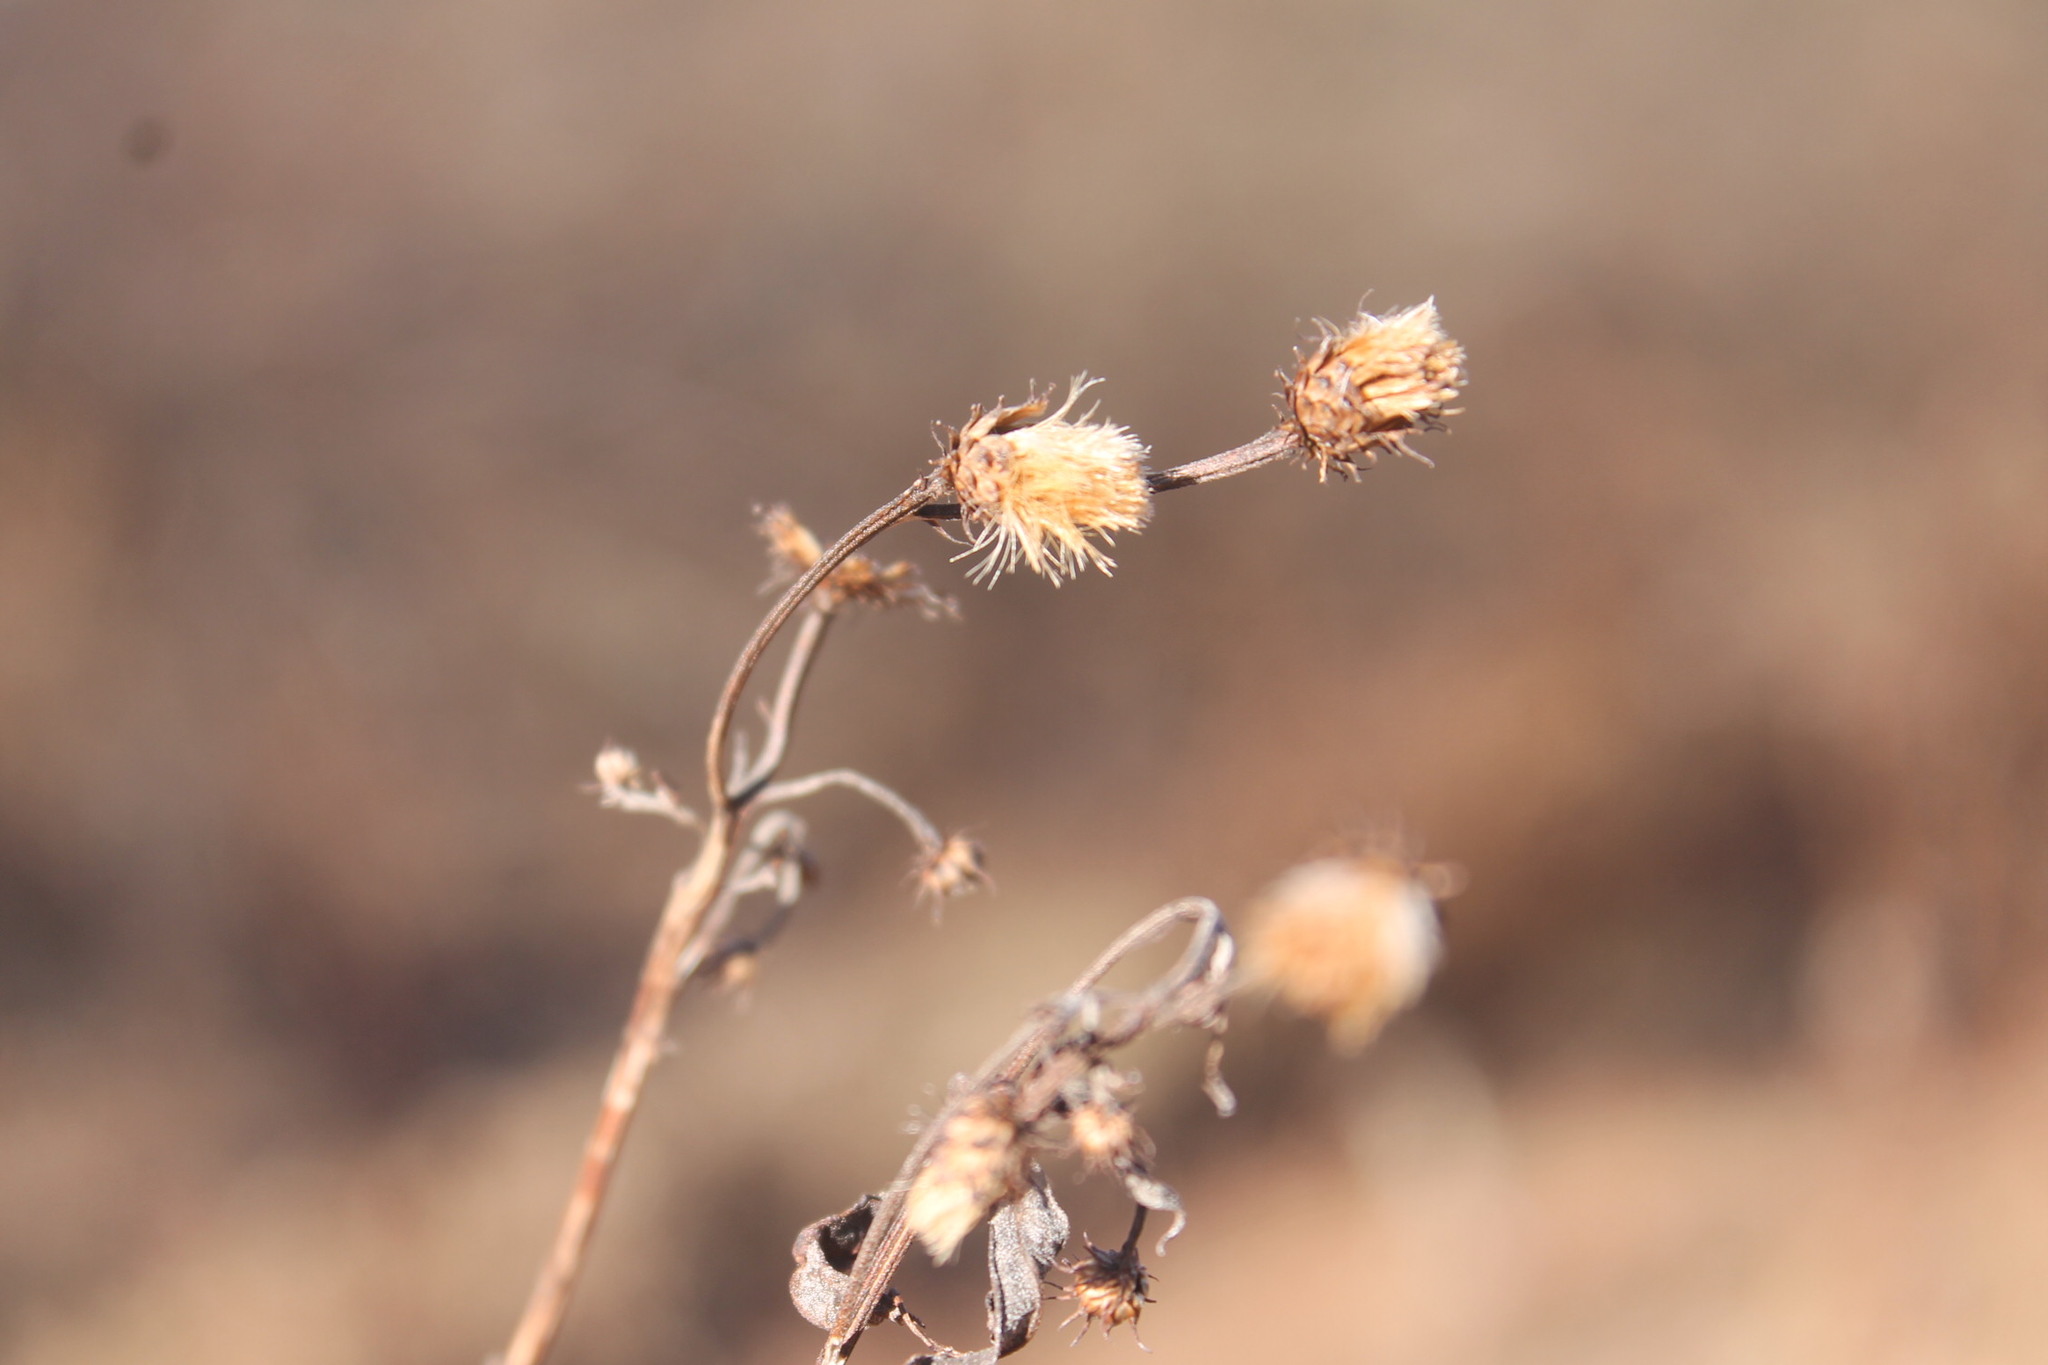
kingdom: Plantae
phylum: Tracheophyta
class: Magnoliopsida
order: Asterales
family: Asteraceae
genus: Vernonia
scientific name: Vernonia noveboracensis
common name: New york ironweed
